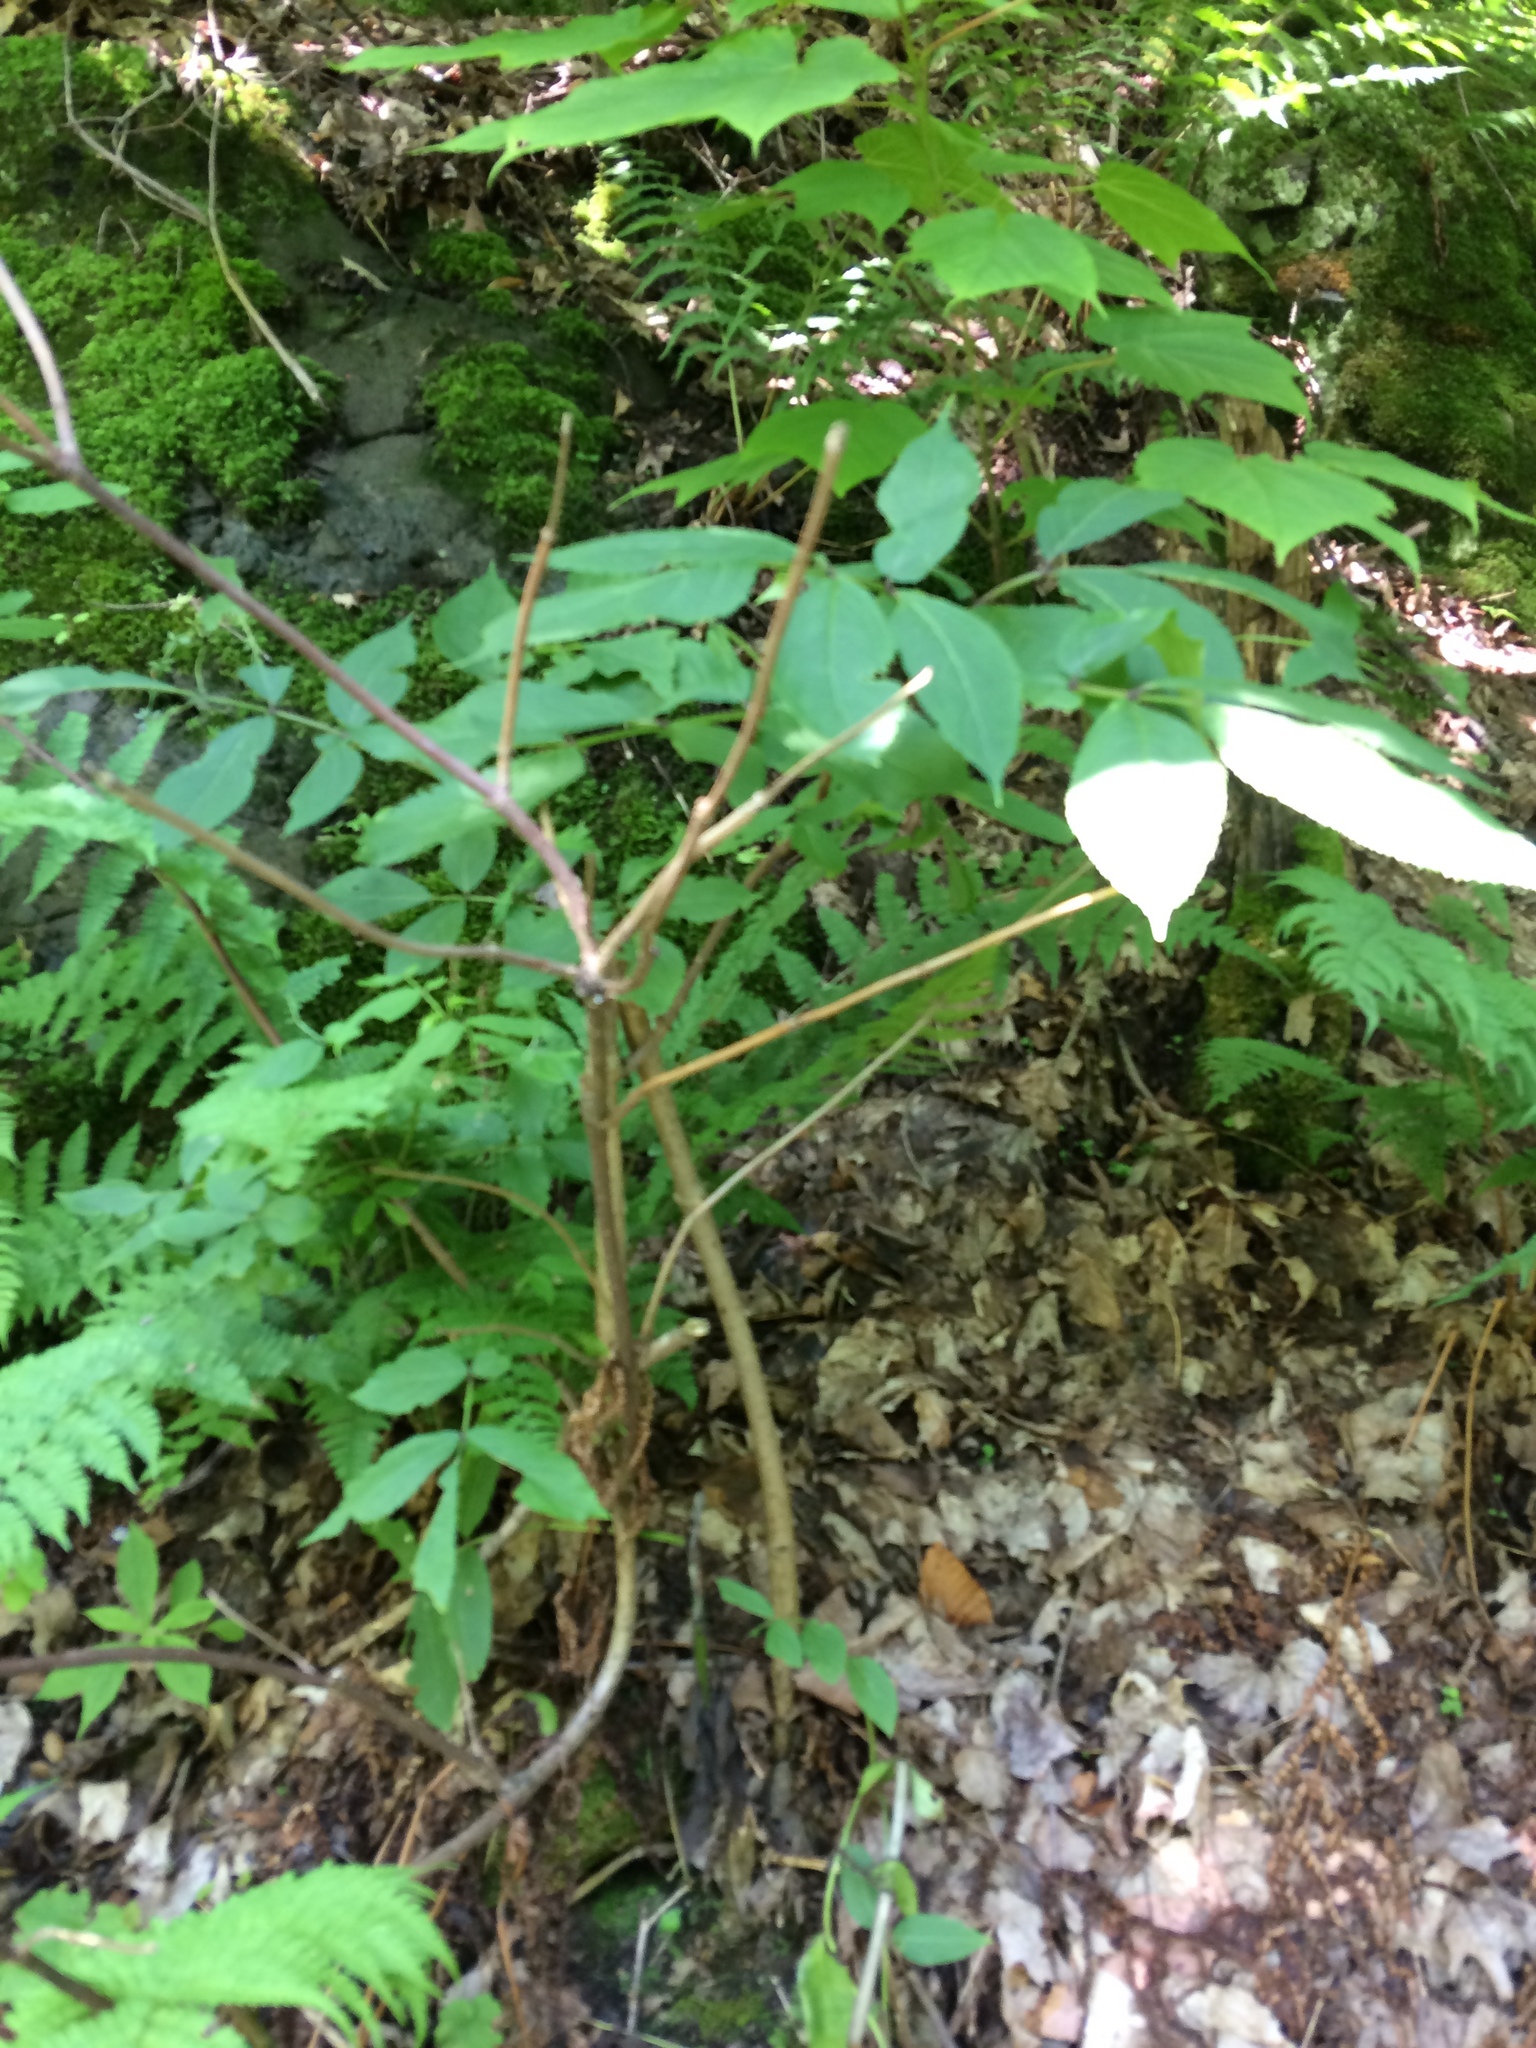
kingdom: Plantae
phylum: Tracheophyta
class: Magnoliopsida
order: Dipsacales
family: Viburnaceae
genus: Sambucus
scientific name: Sambucus racemosa
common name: Red-berried elder
